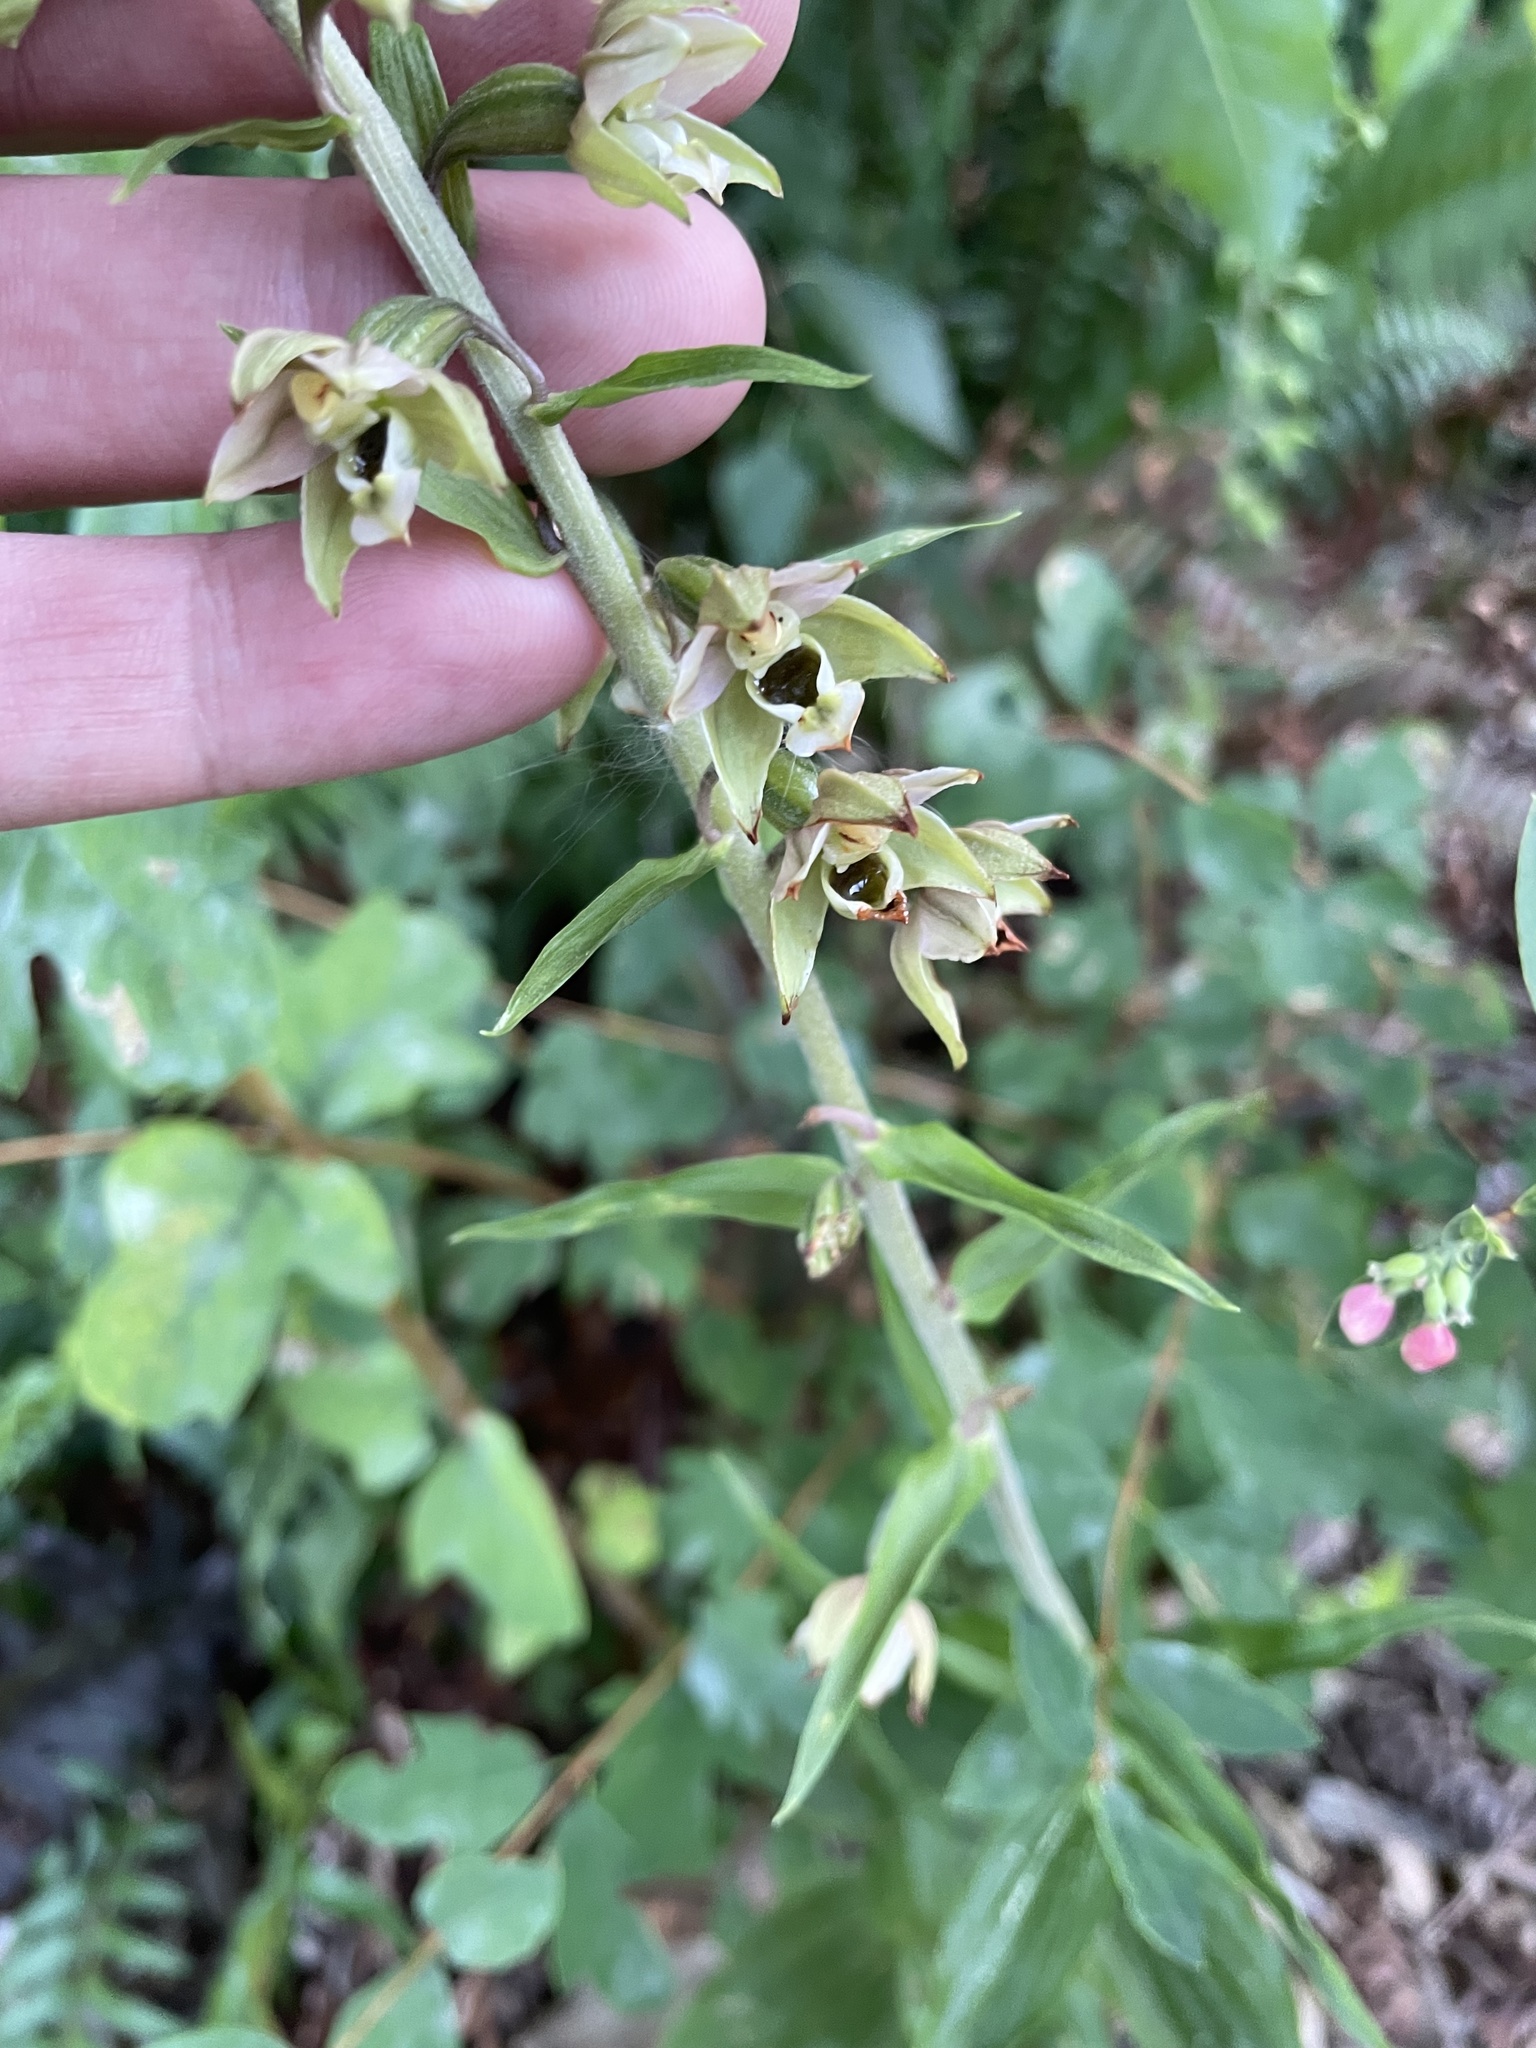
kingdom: Plantae
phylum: Tracheophyta
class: Liliopsida
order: Asparagales
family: Orchidaceae
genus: Epipactis
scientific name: Epipactis helleborine
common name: Broad-leaved helleborine
